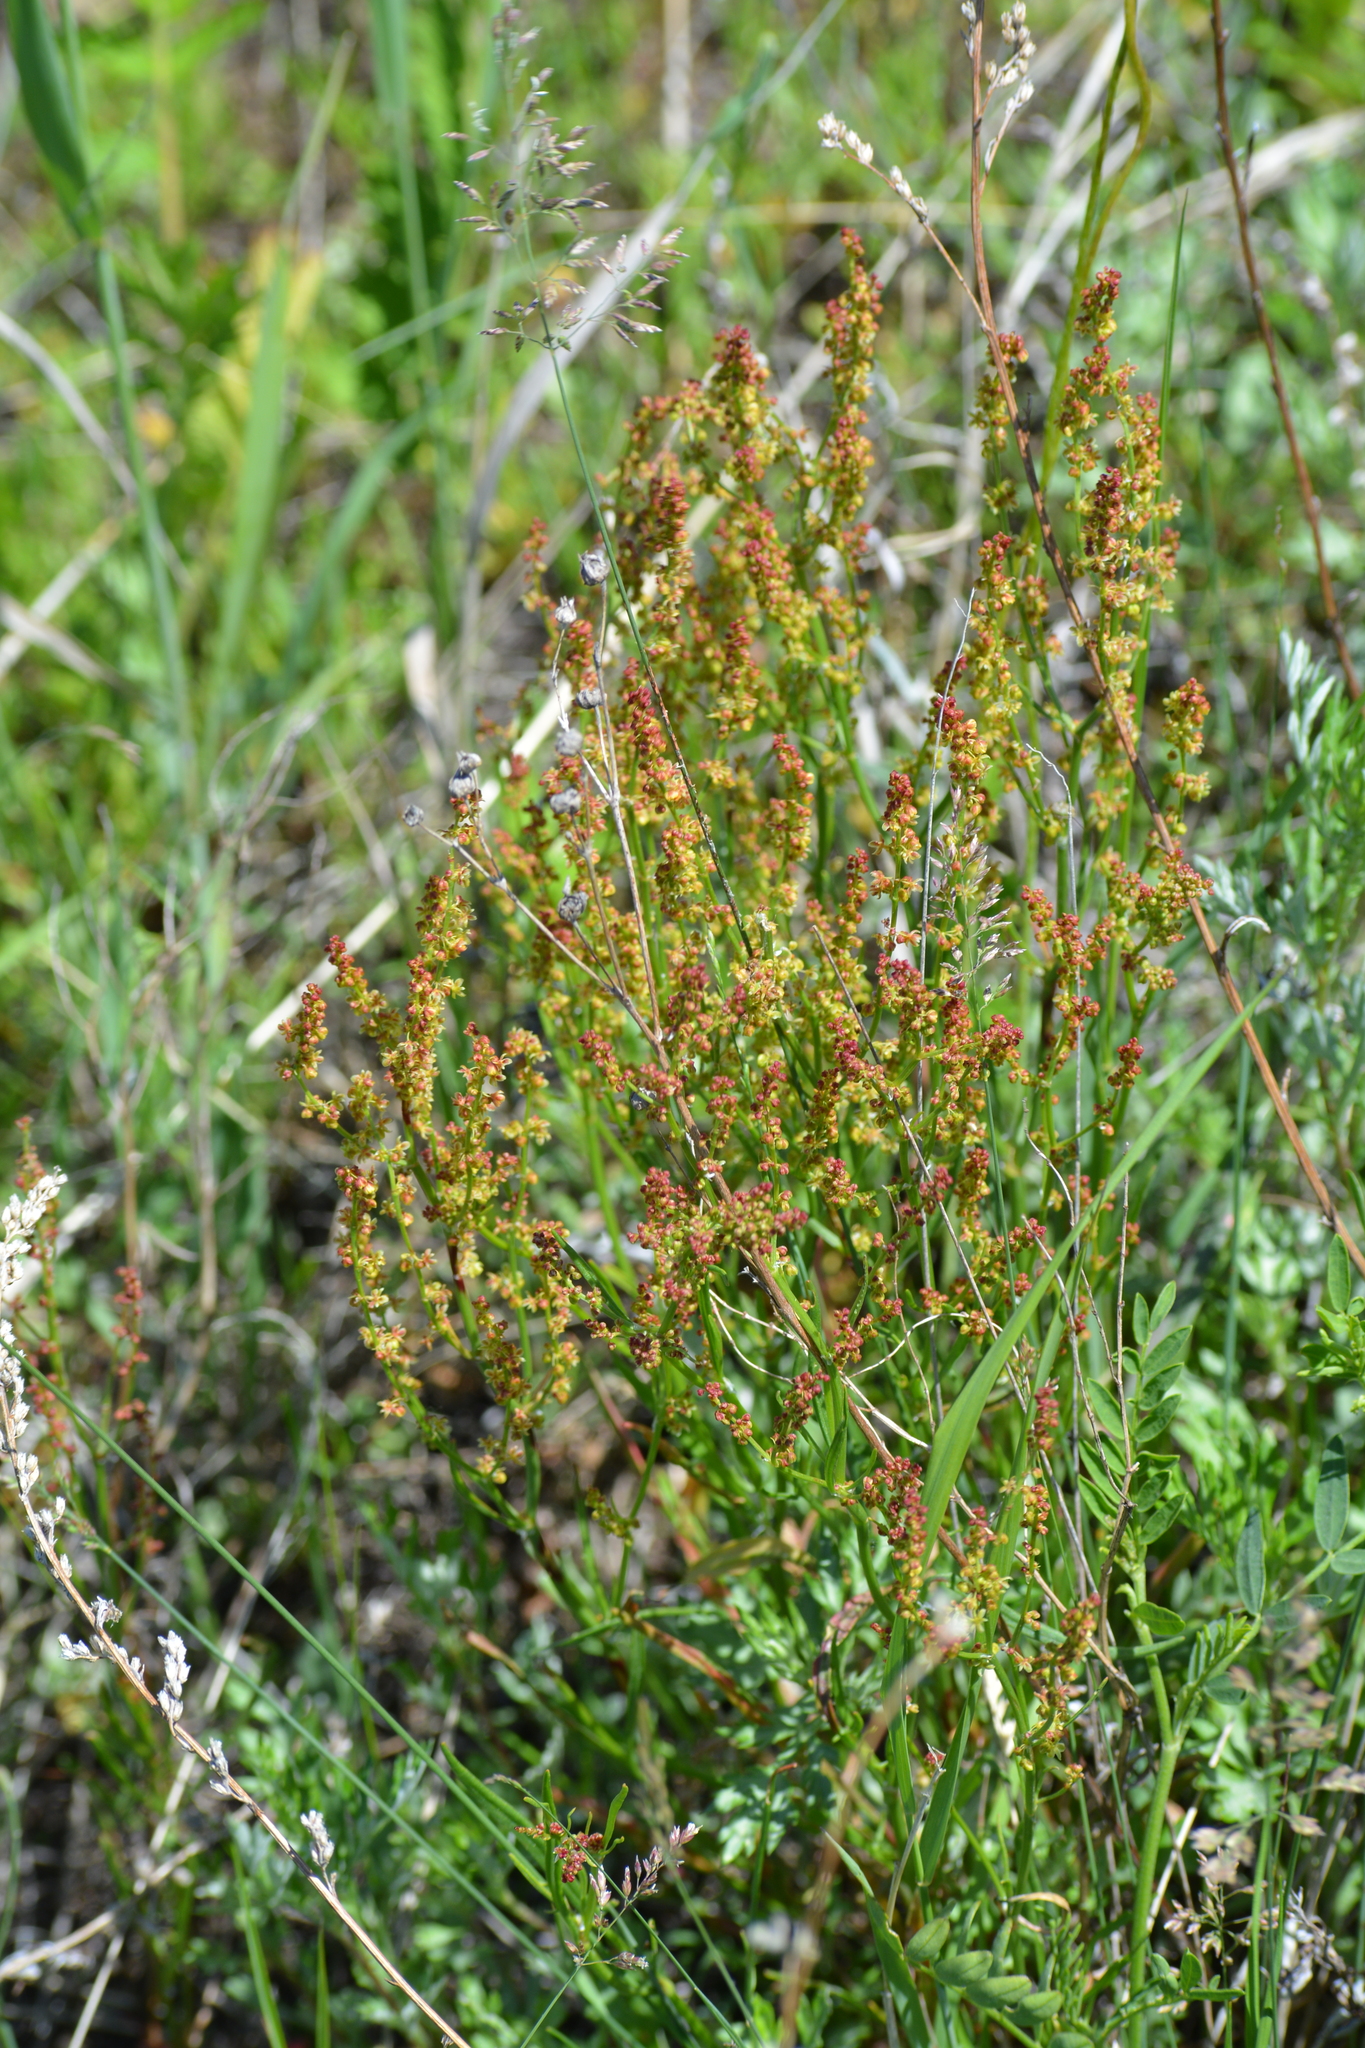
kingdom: Plantae
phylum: Tracheophyta
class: Magnoliopsida
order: Caryophyllales
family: Polygonaceae
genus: Rumex
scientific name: Rumex acetosella
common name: Common sheep sorrel
